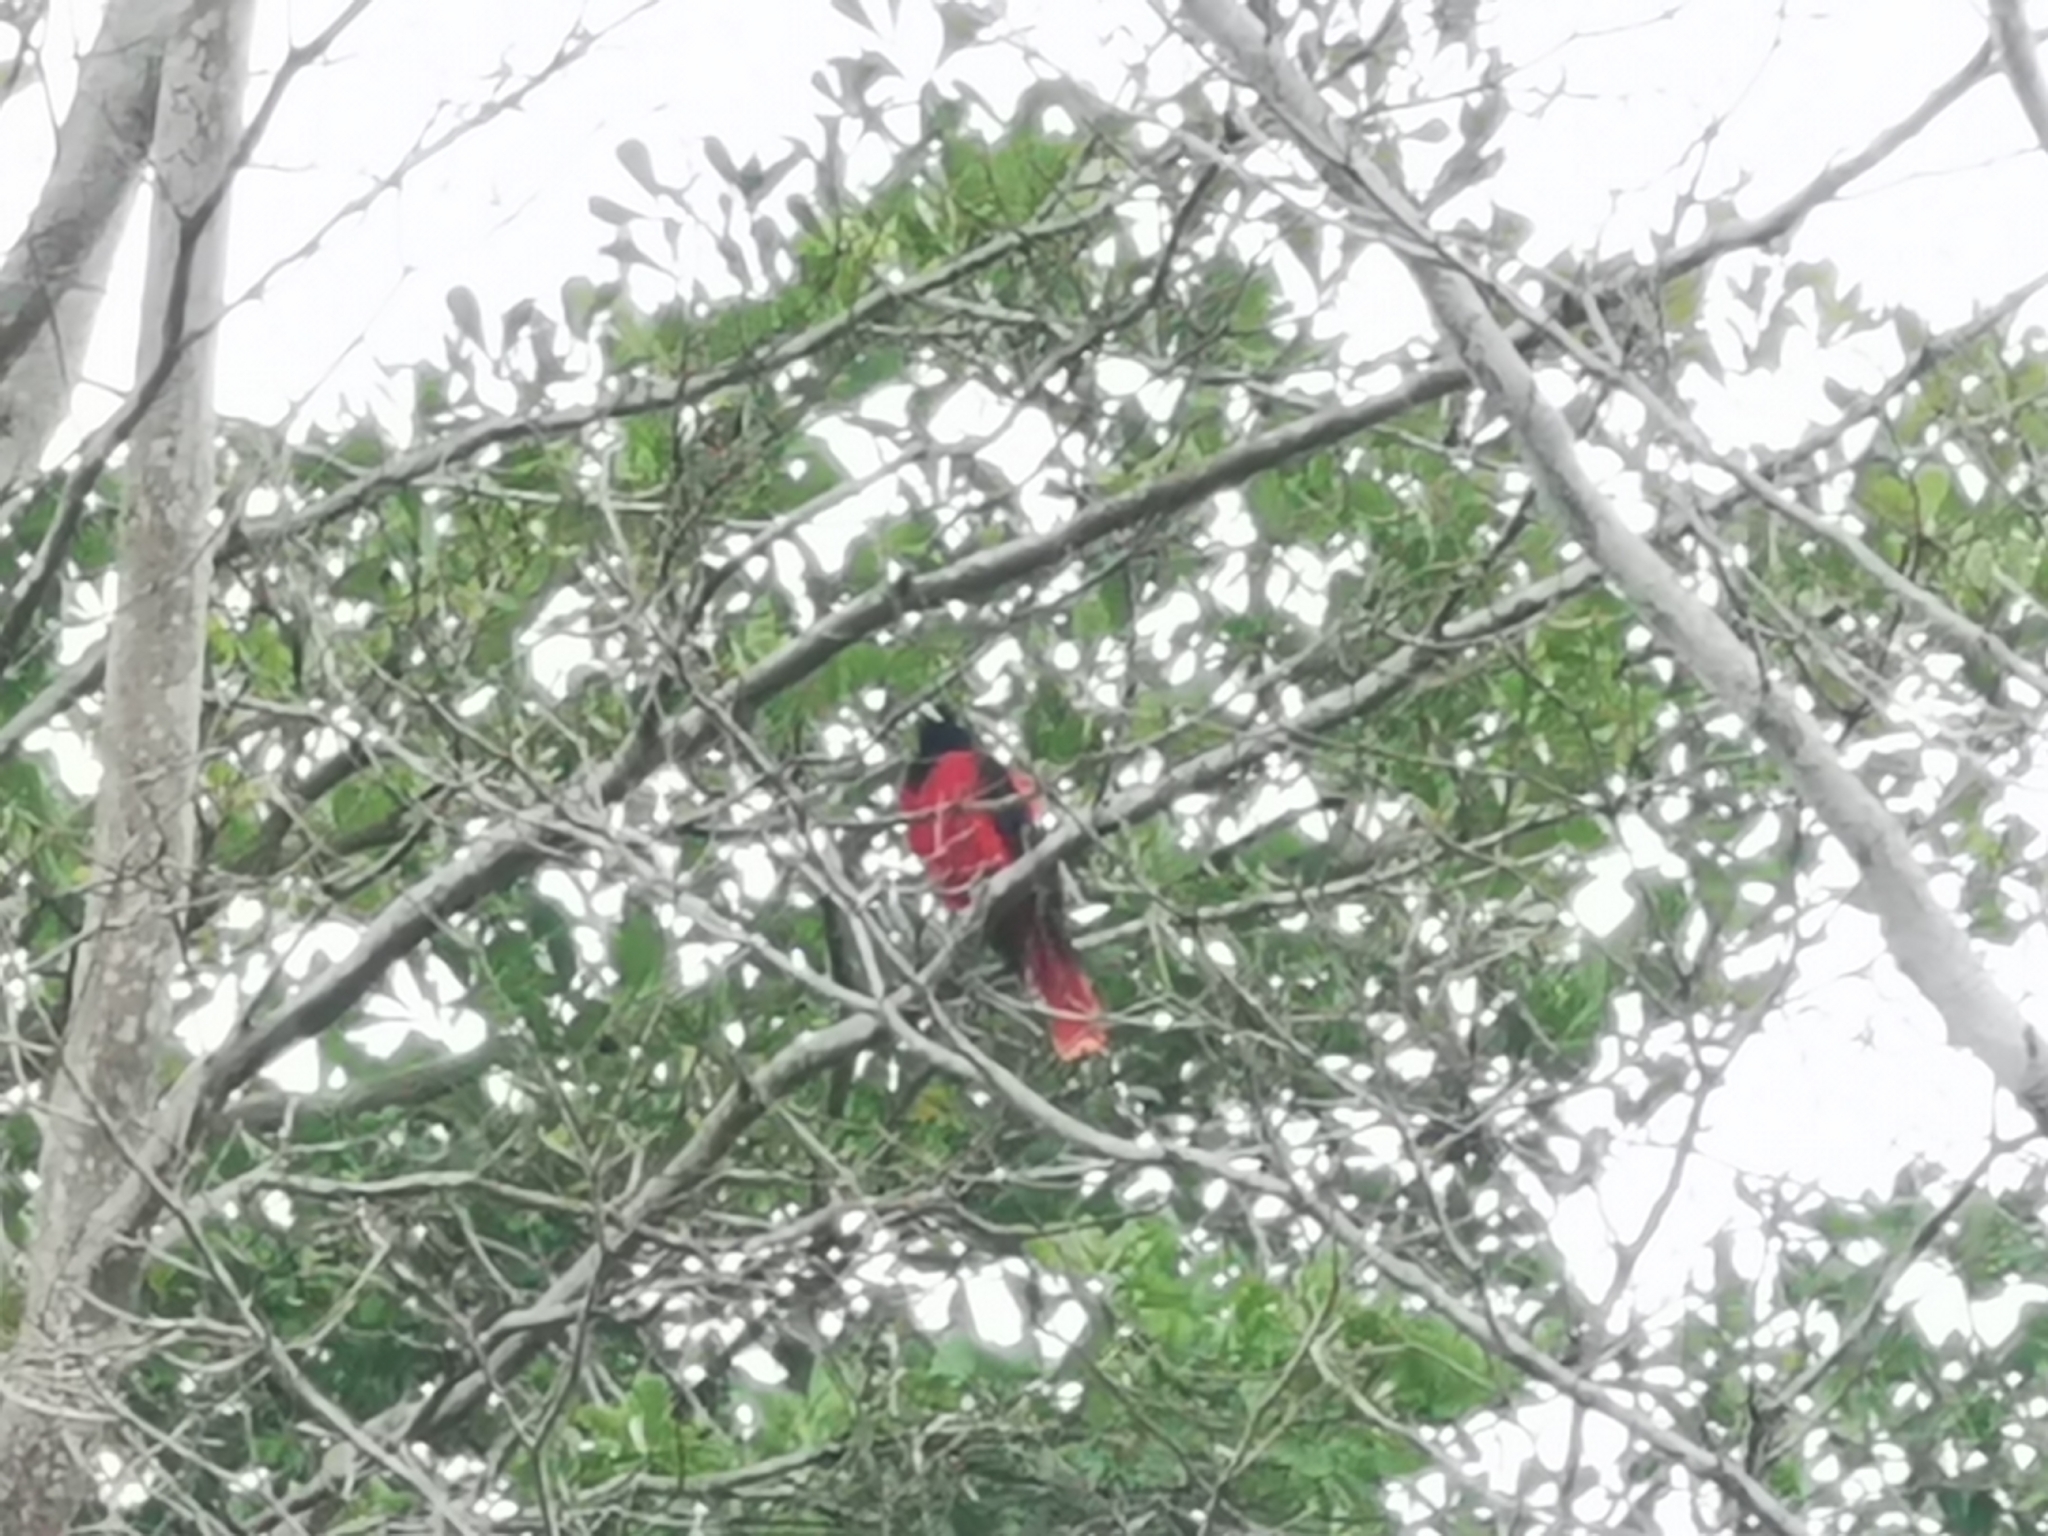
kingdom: Animalia
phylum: Chordata
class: Aves
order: Passeriformes
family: Oriolidae
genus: Oriolus
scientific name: Oriolus traillii
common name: Maroon oriole
